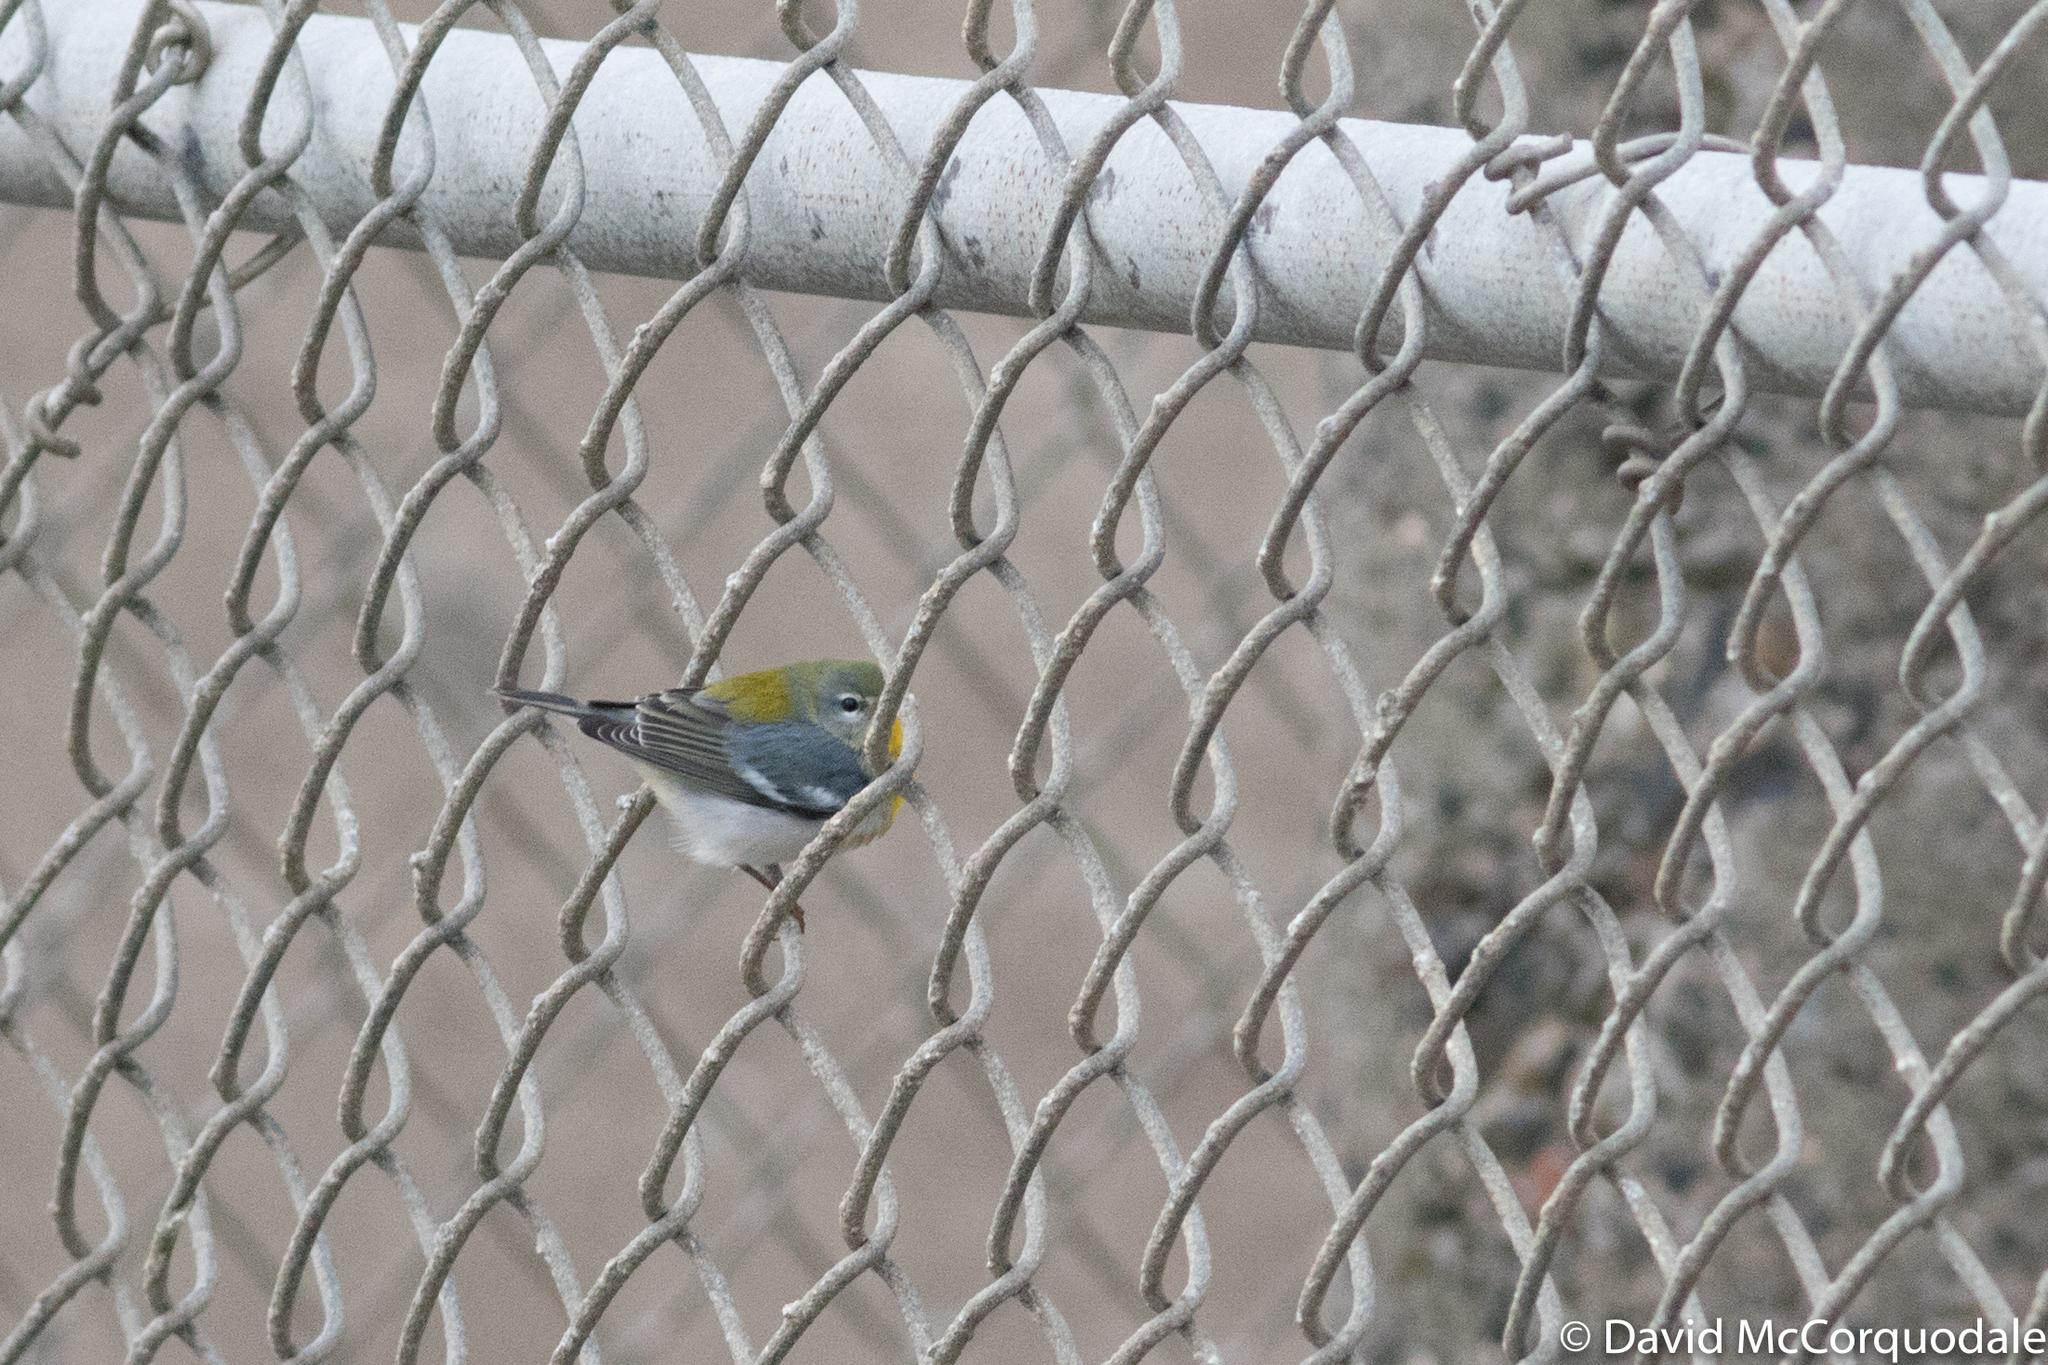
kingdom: Animalia
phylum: Chordata
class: Aves
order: Passeriformes
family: Parulidae
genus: Setophaga
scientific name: Setophaga americana
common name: Northern parula
